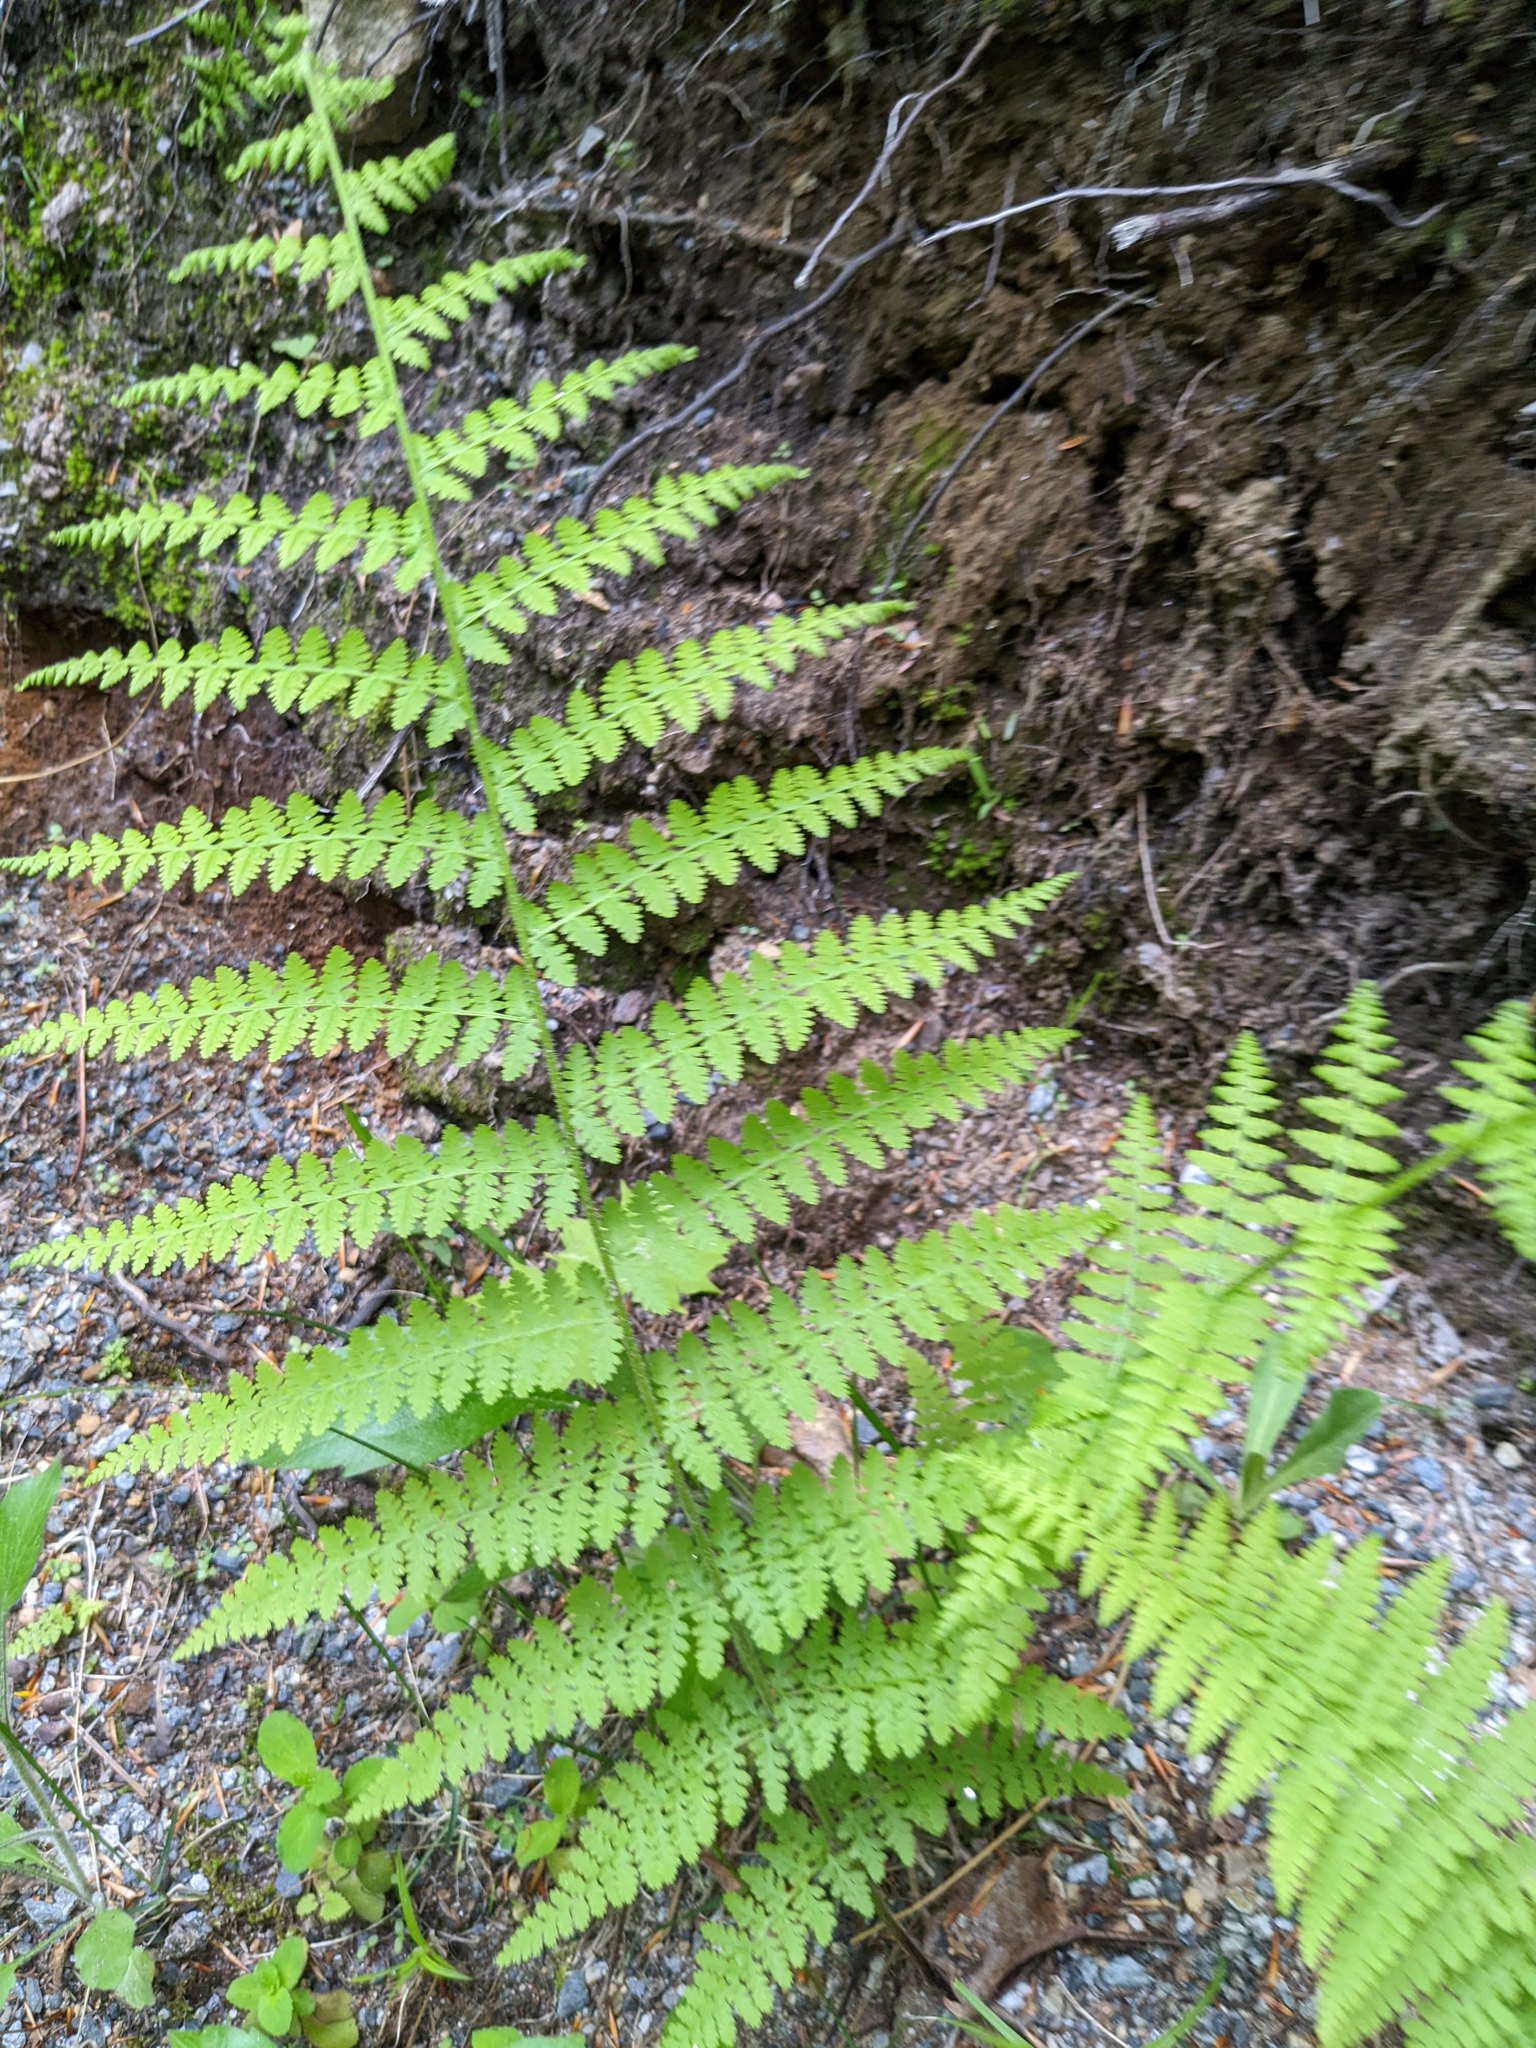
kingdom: Plantae
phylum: Tracheophyta
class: Polypodiopsida
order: Polypodiales
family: Dennstaedtiaceae
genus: Sitobolium
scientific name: Sitobolium punctilobum
